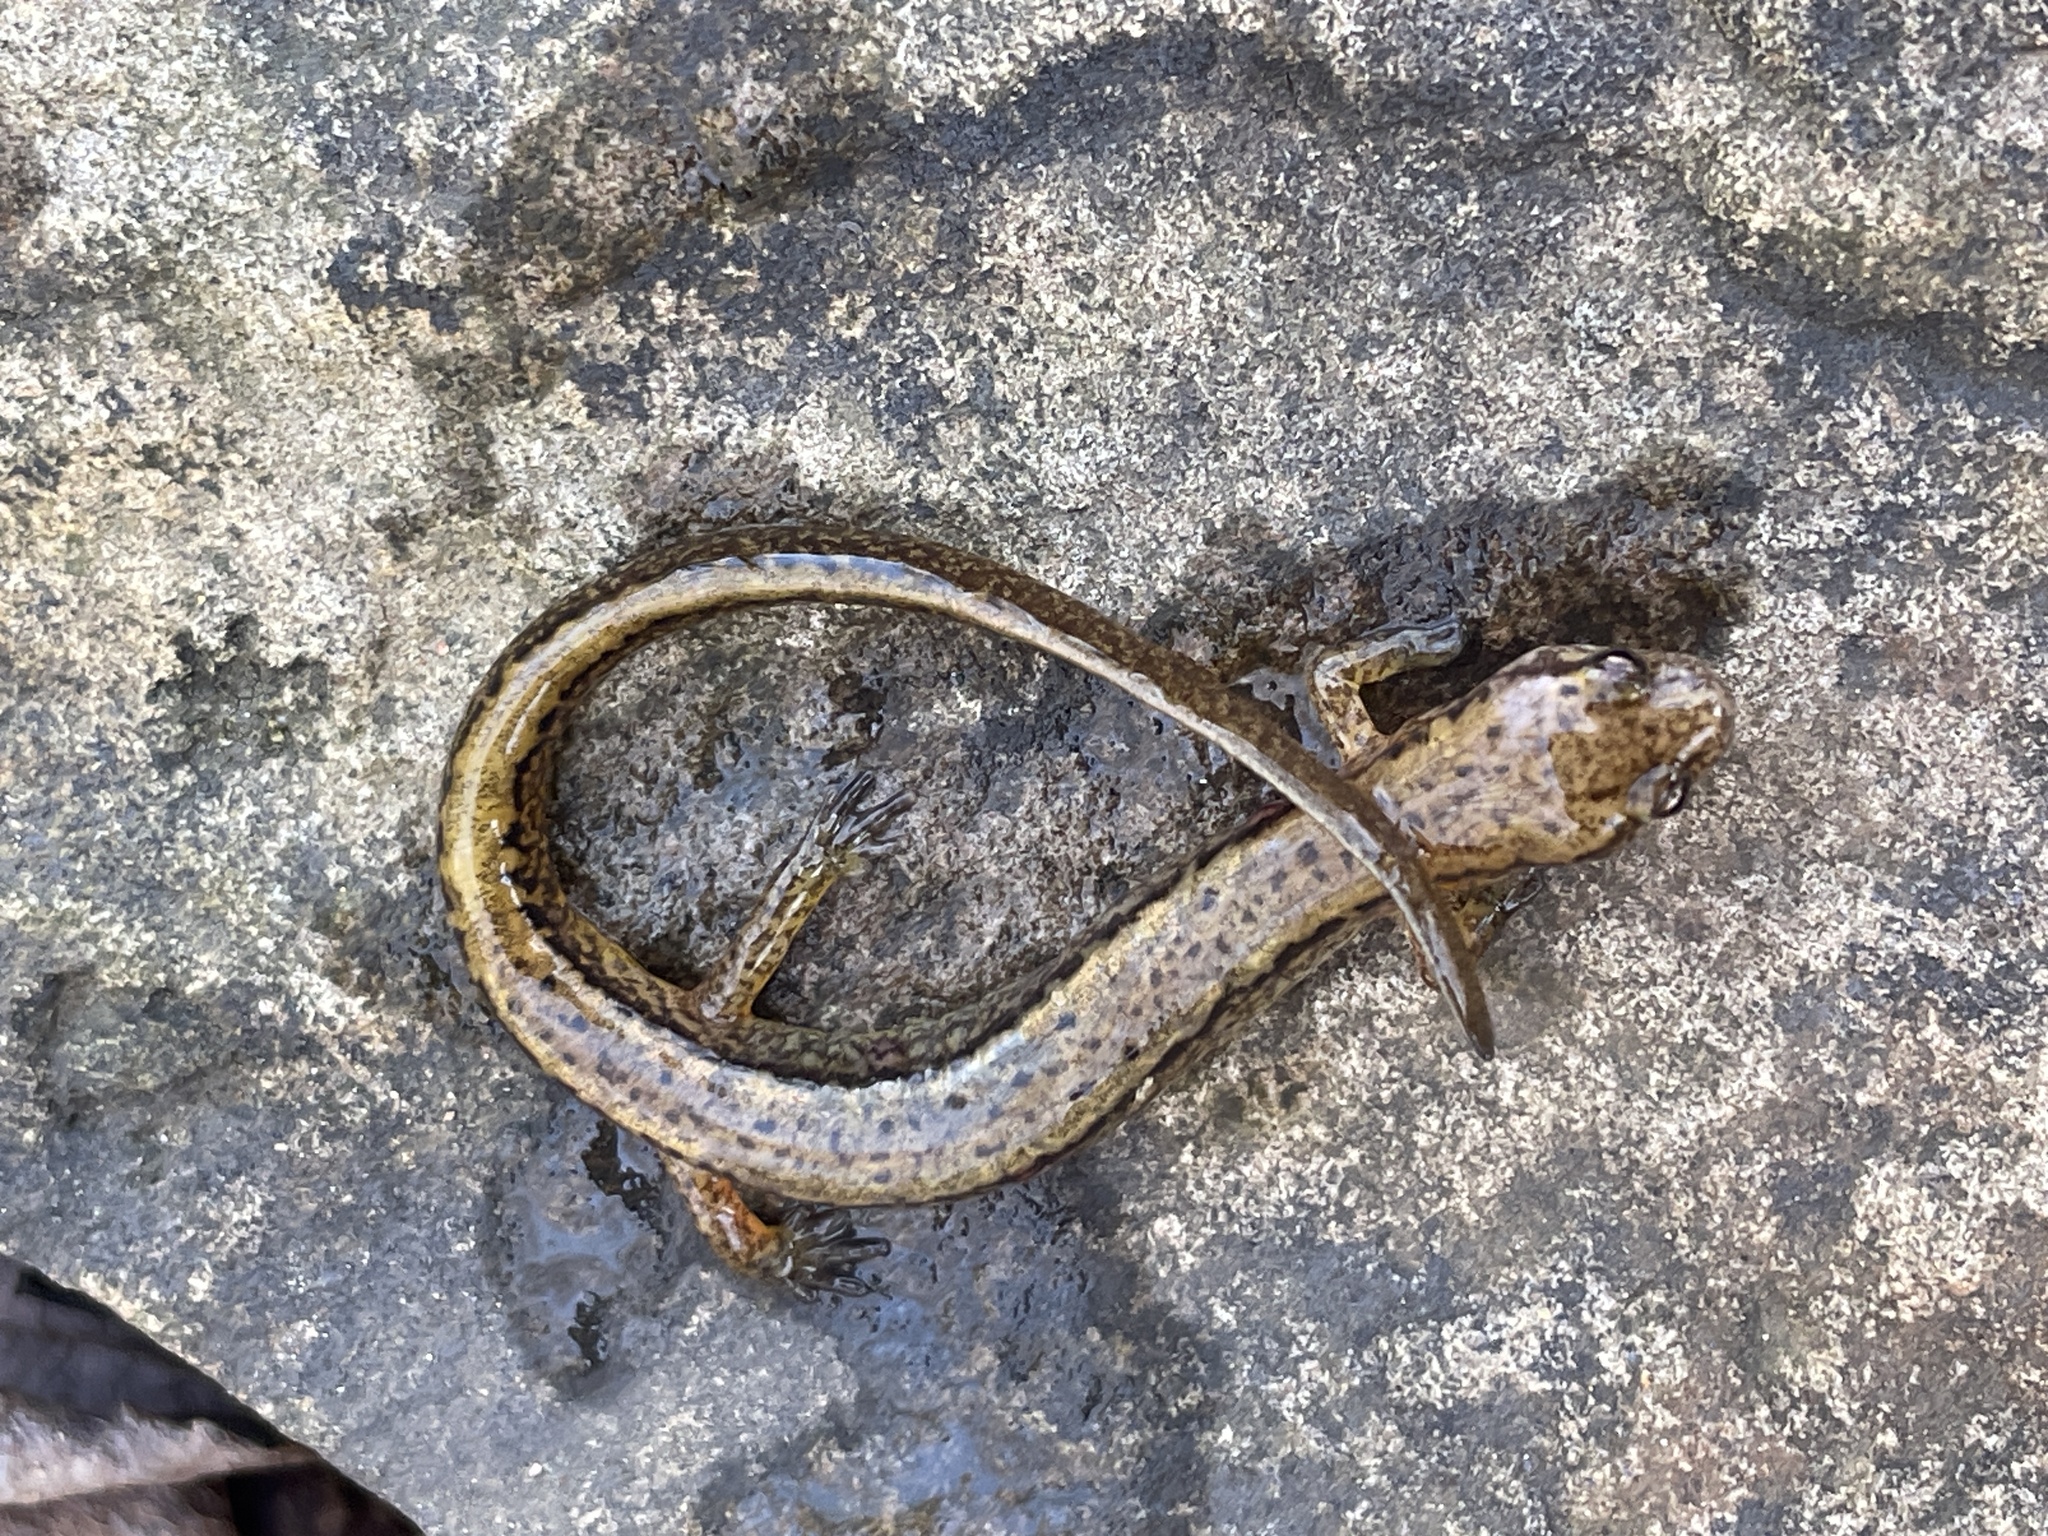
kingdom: Animalia
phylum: Chordata
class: Amphibia
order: Caudata
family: Plethodontidae
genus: Eurycea
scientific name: Eurycea bislineata
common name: Northern two-lined salamander
